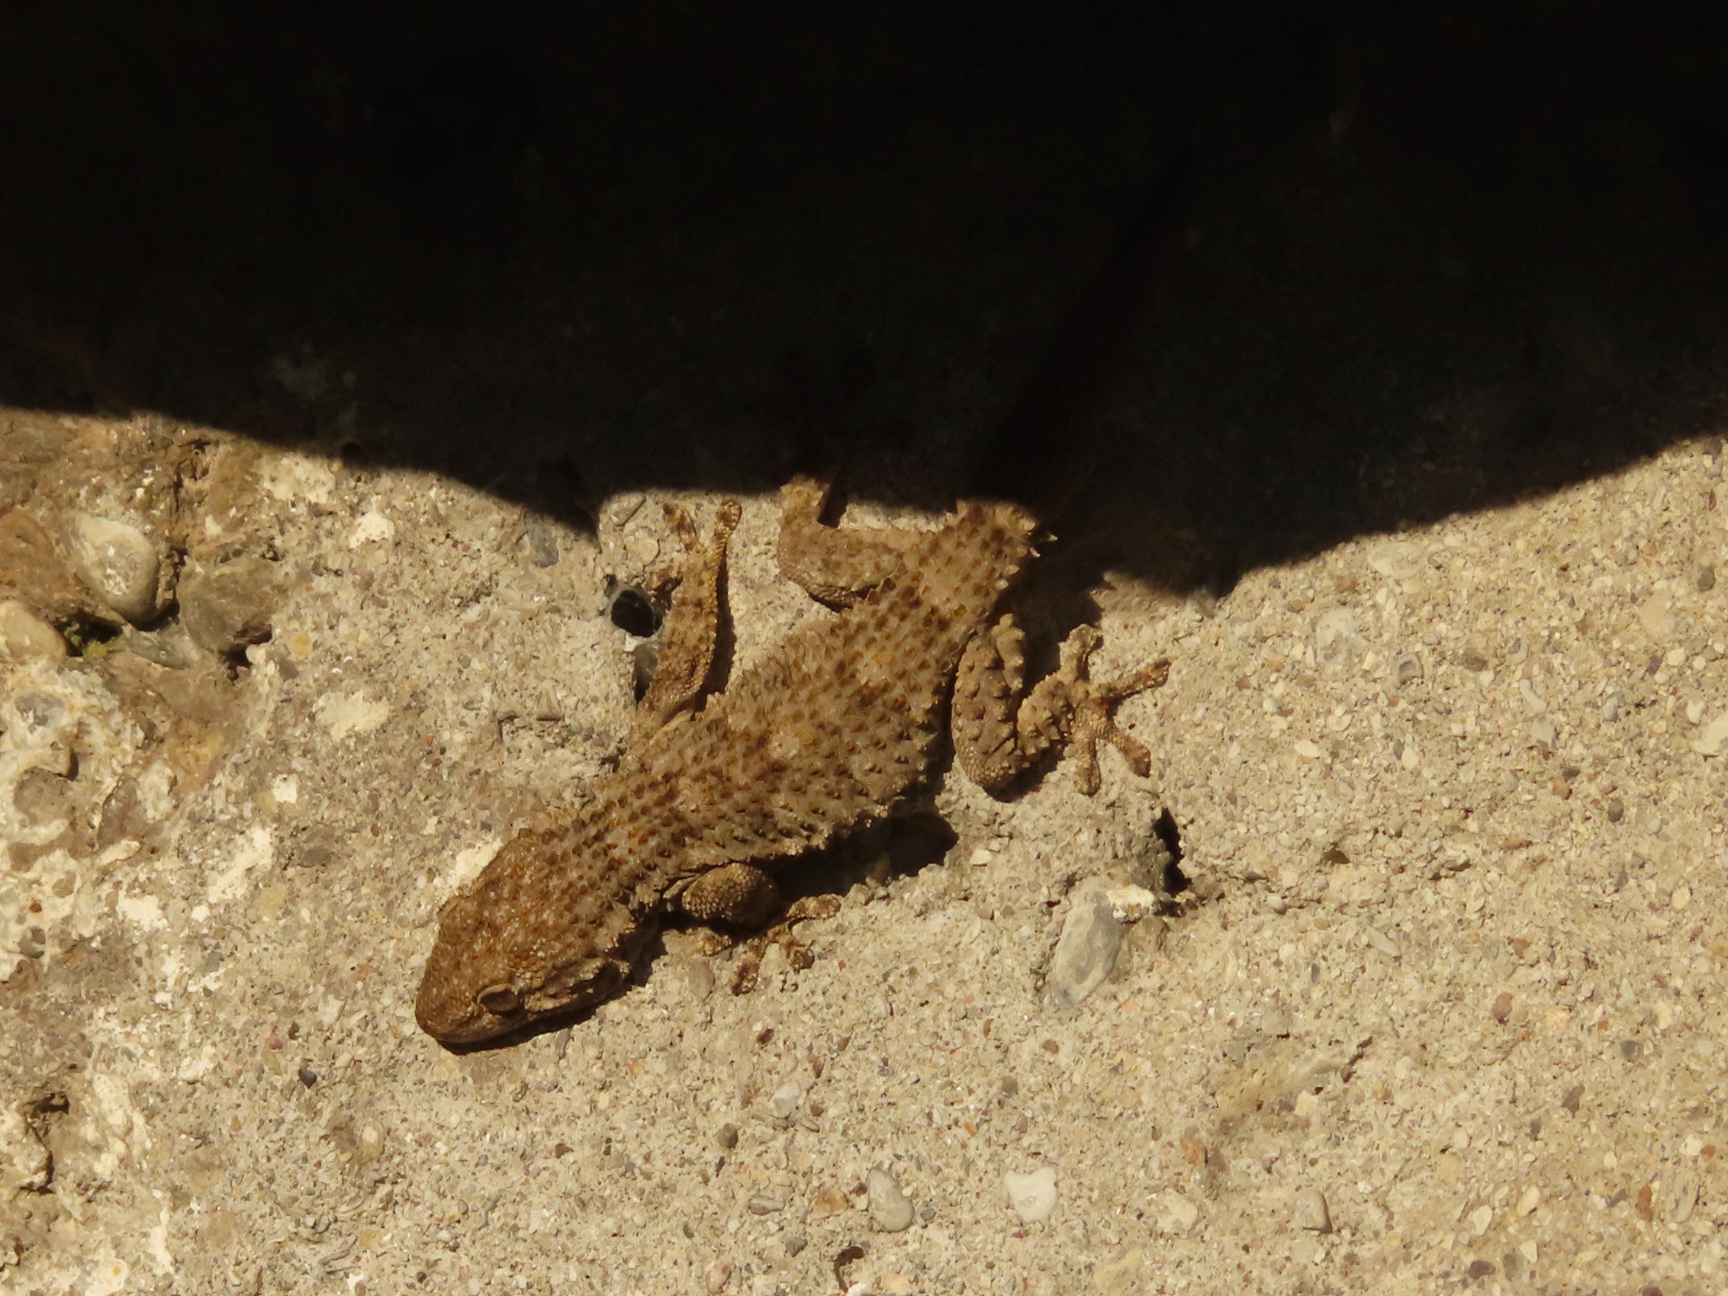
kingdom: Animalia
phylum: Chordata
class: Squamata
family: Phyllodactylidae
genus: Tarentola
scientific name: Tarentola mauritanica
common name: Moorish gecko
